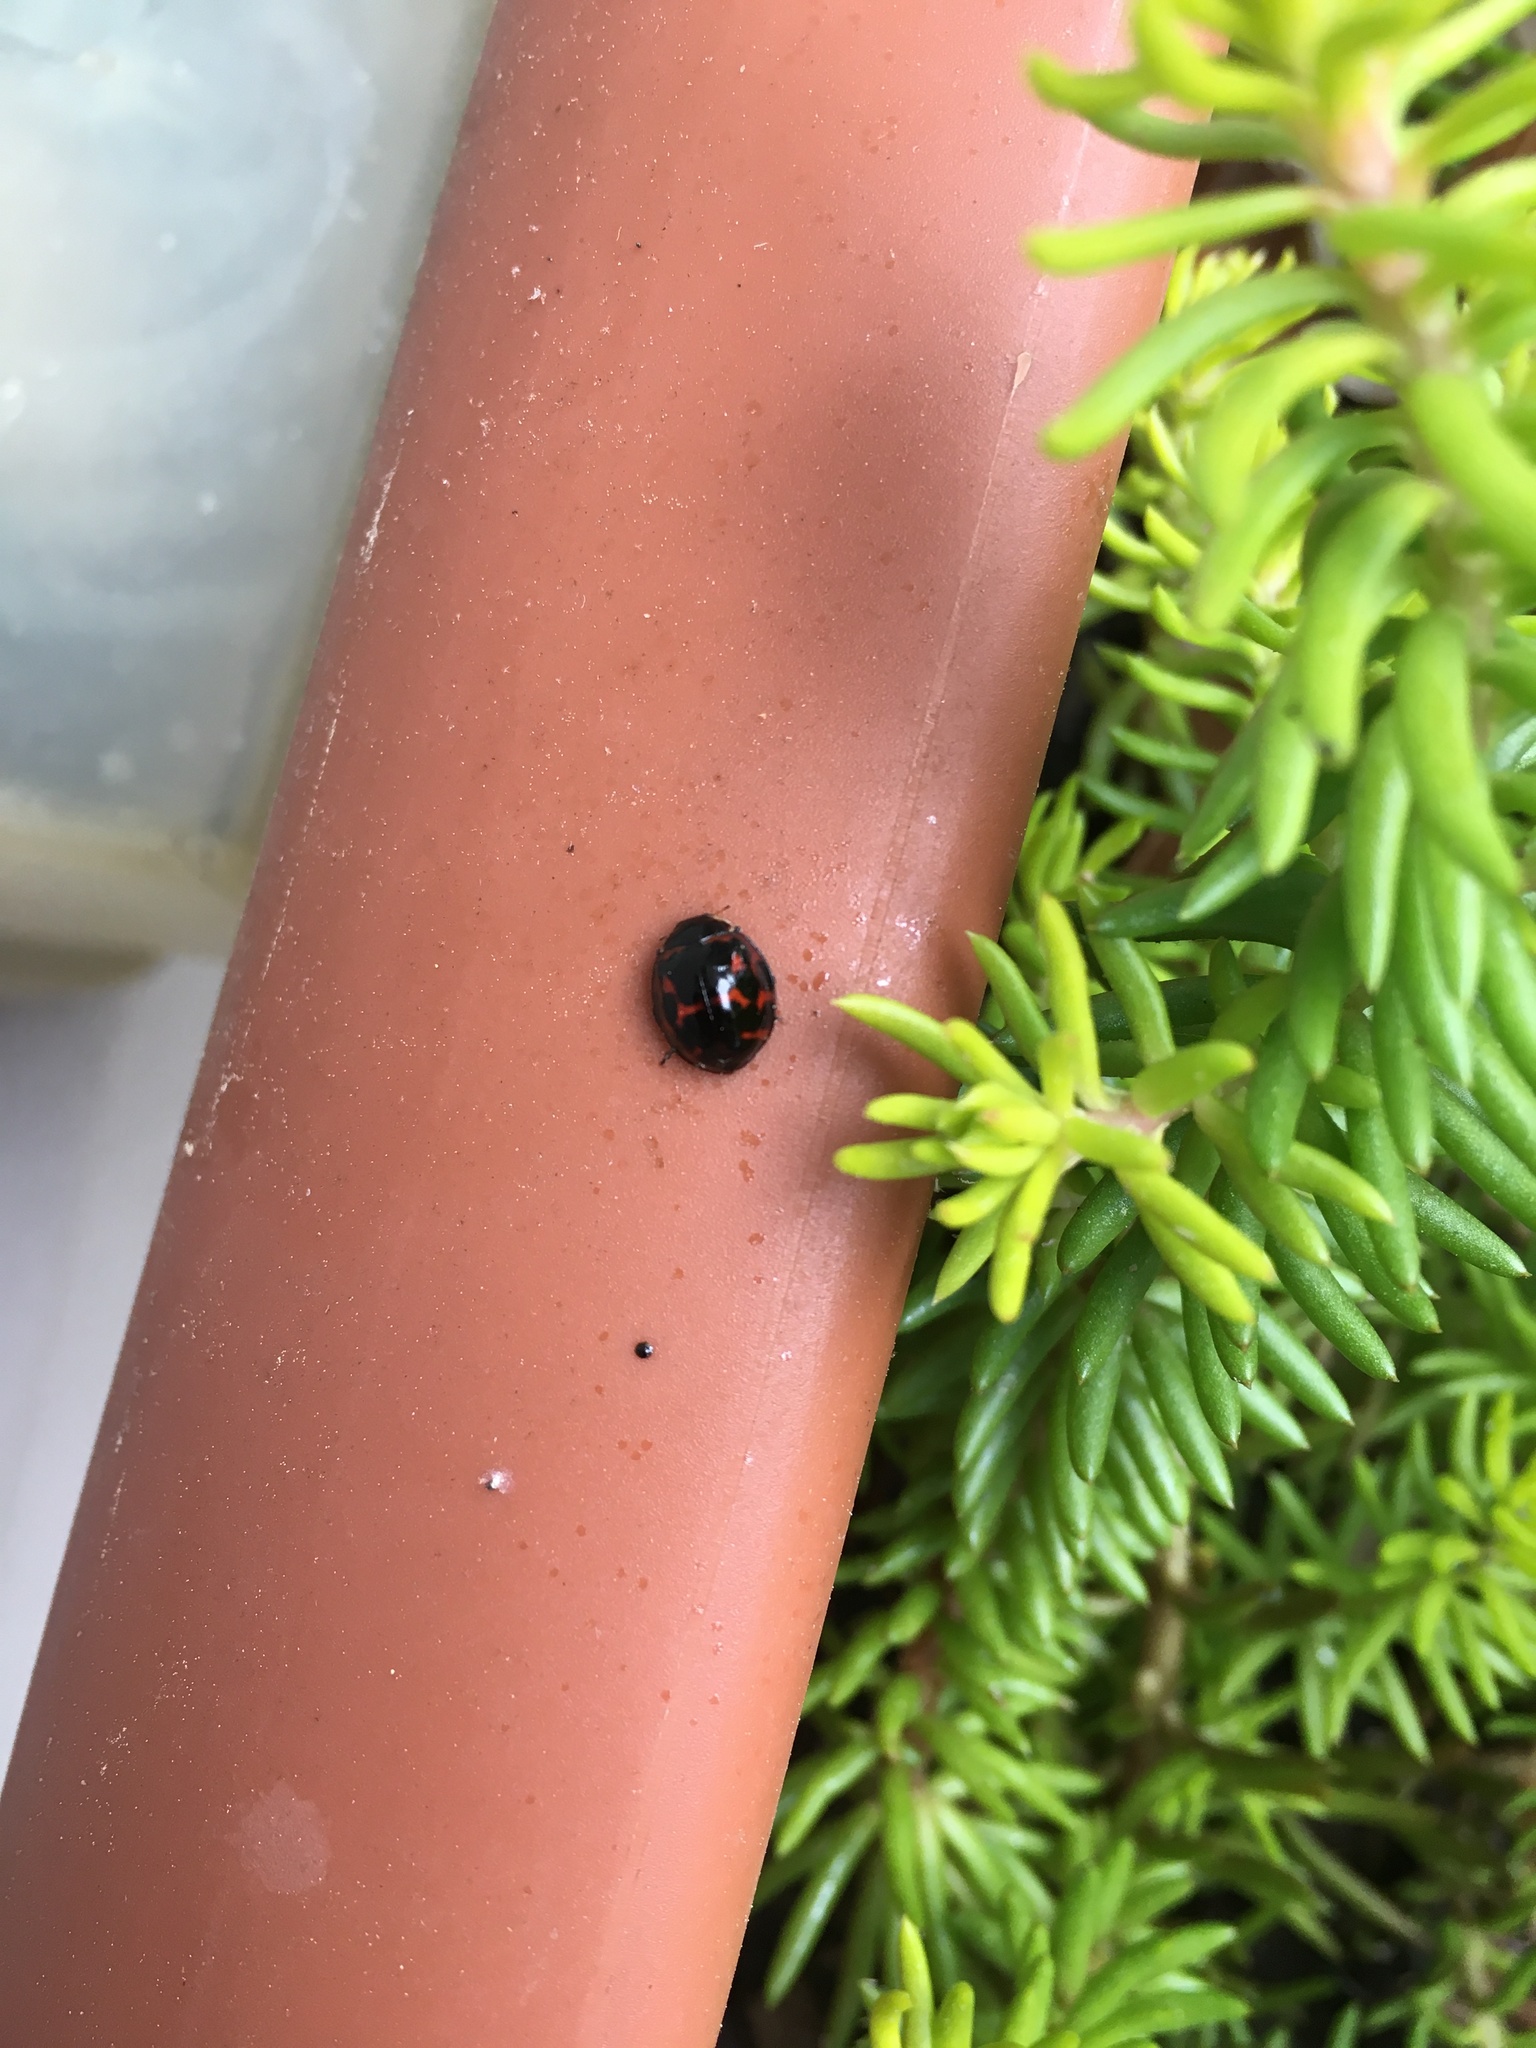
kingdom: Animalia
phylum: Arthropoda
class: Insecta
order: Coleoptera
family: Coccinellidae
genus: Harmonia
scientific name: Harmonia axyridis
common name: Harlequin ladybird
